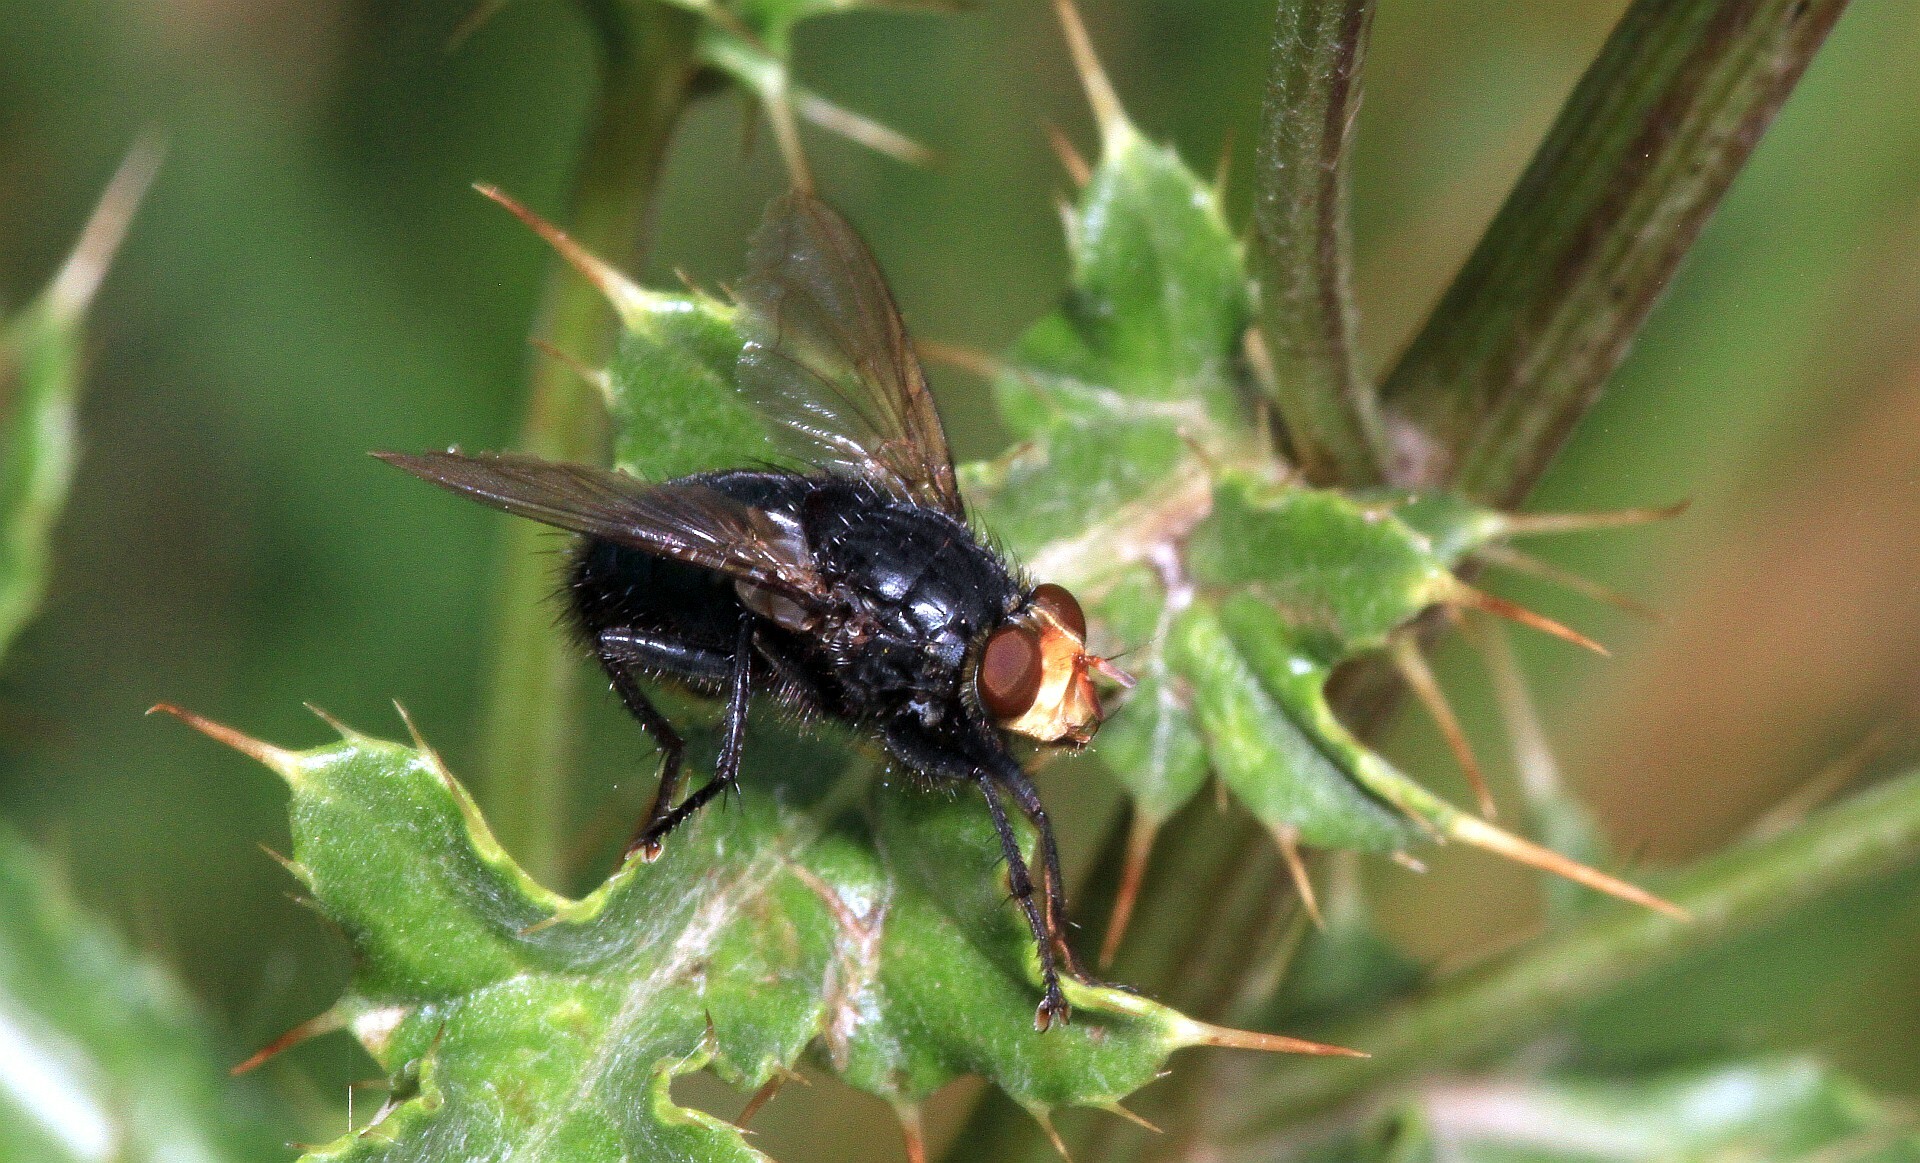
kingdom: Animalia
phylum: Arthropoda
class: Insecta
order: Diptera
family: Calliphoridae
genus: Cynomya
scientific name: Cynomya mortuorum
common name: Bluebottle blow fly
